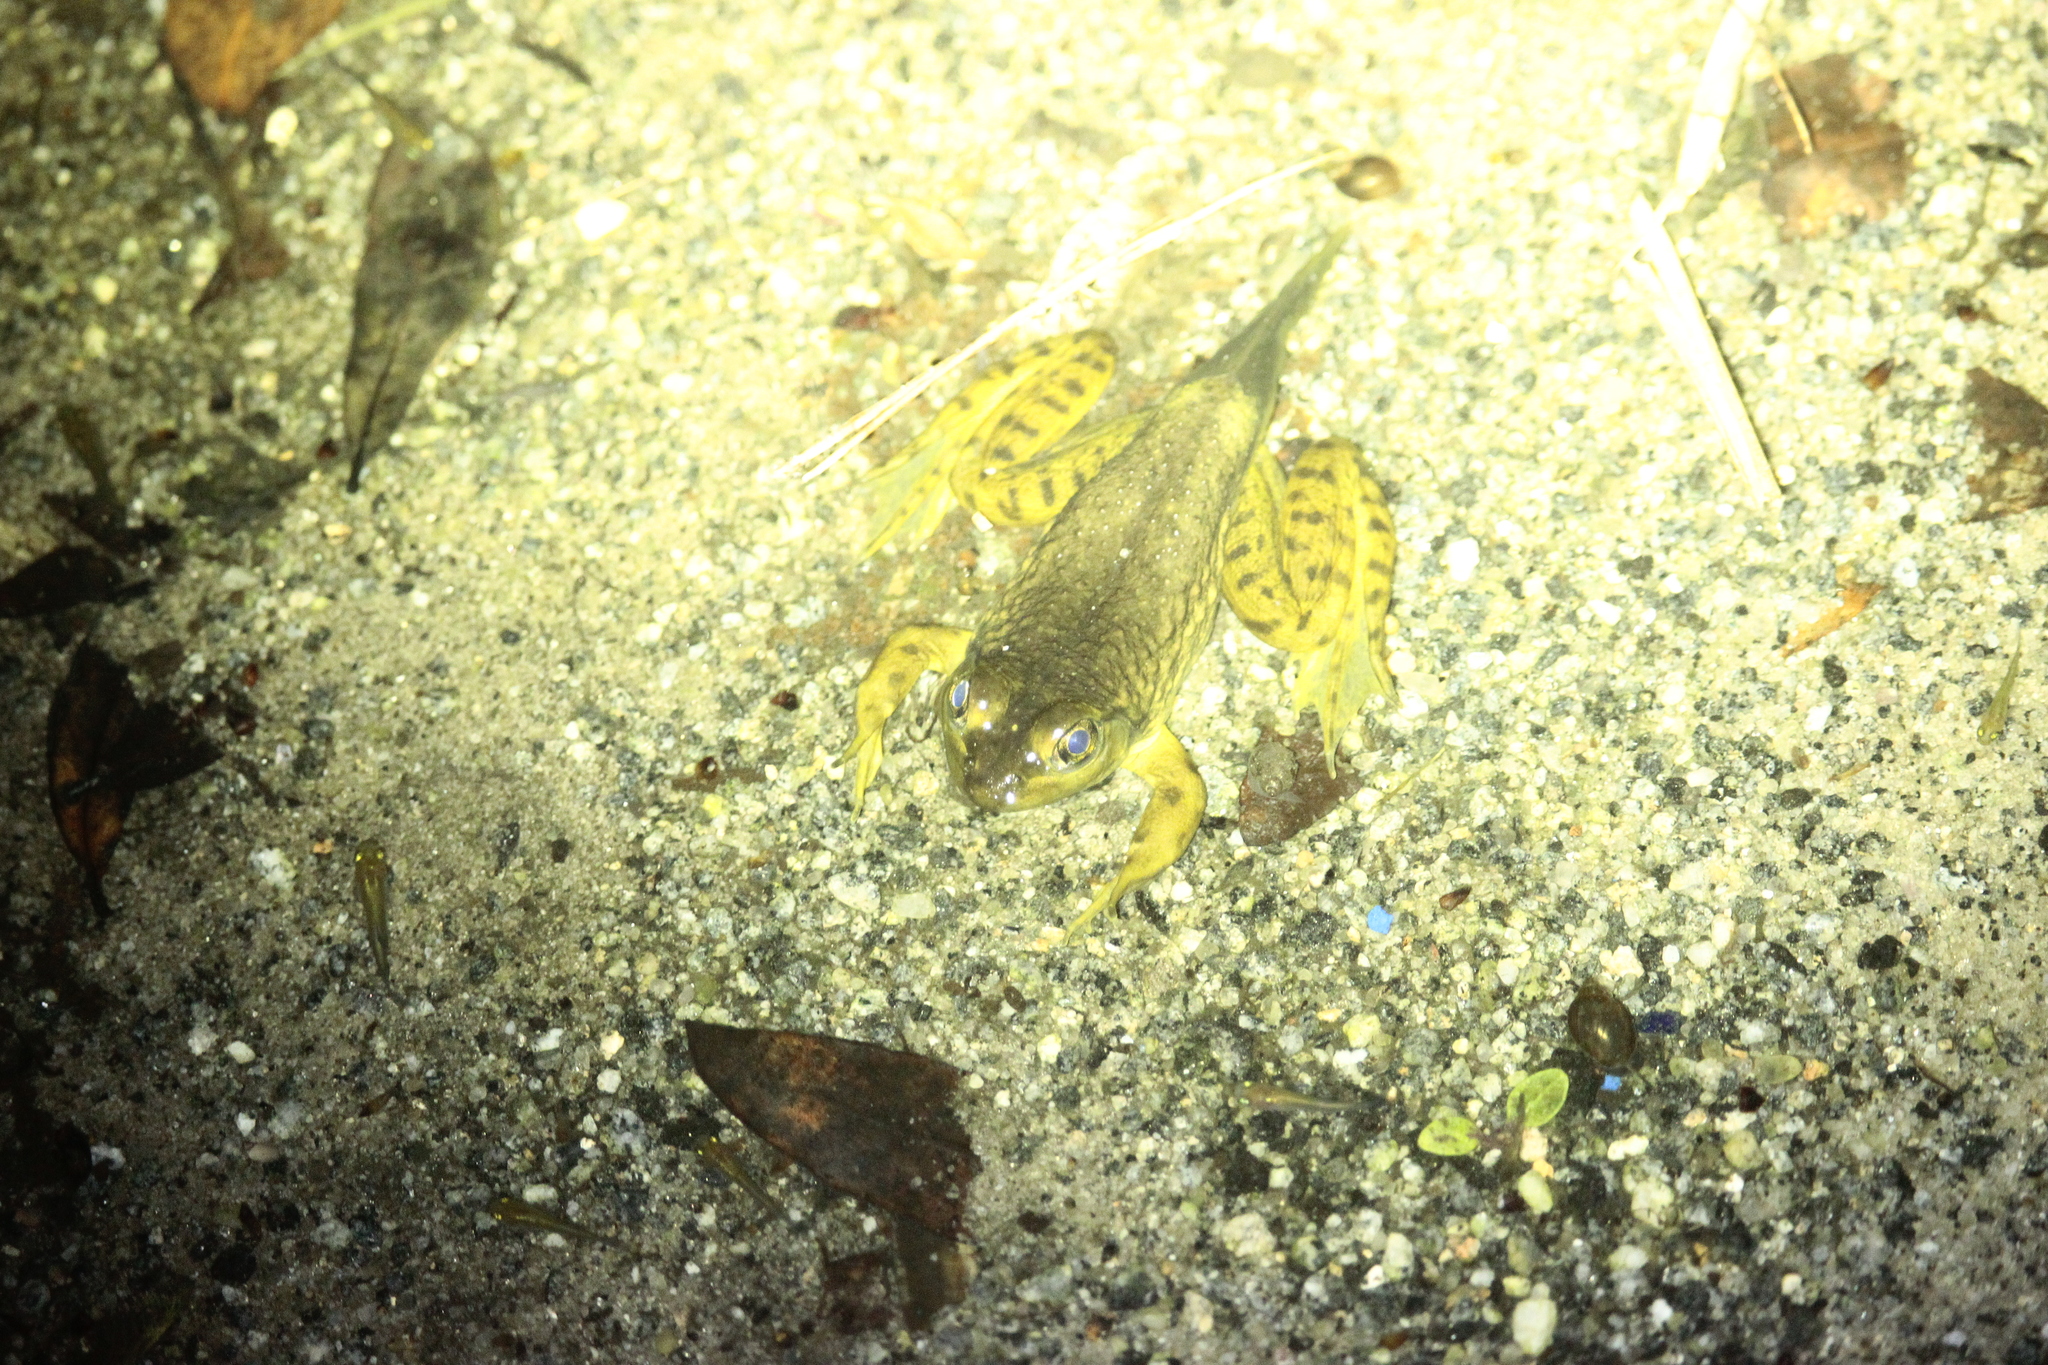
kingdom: Animalia
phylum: Chordata
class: Amphibia
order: Anura
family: Ranidae
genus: Lithobates
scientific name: Lithobates catesbeianus
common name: American bullfrog
